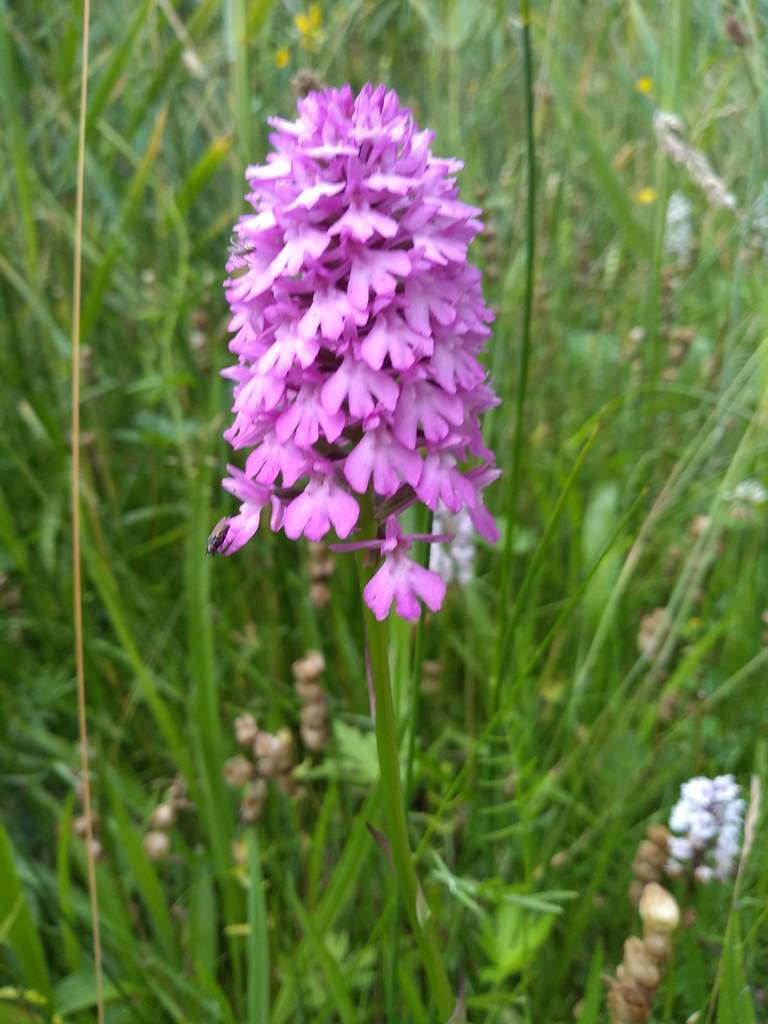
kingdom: Plantae
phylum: Tracheophyta
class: Liliopsida
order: Asparagales
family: Orchidaceae
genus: Anacamptis
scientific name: Anacamptis pyramidalis
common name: Pyramidal orchid
